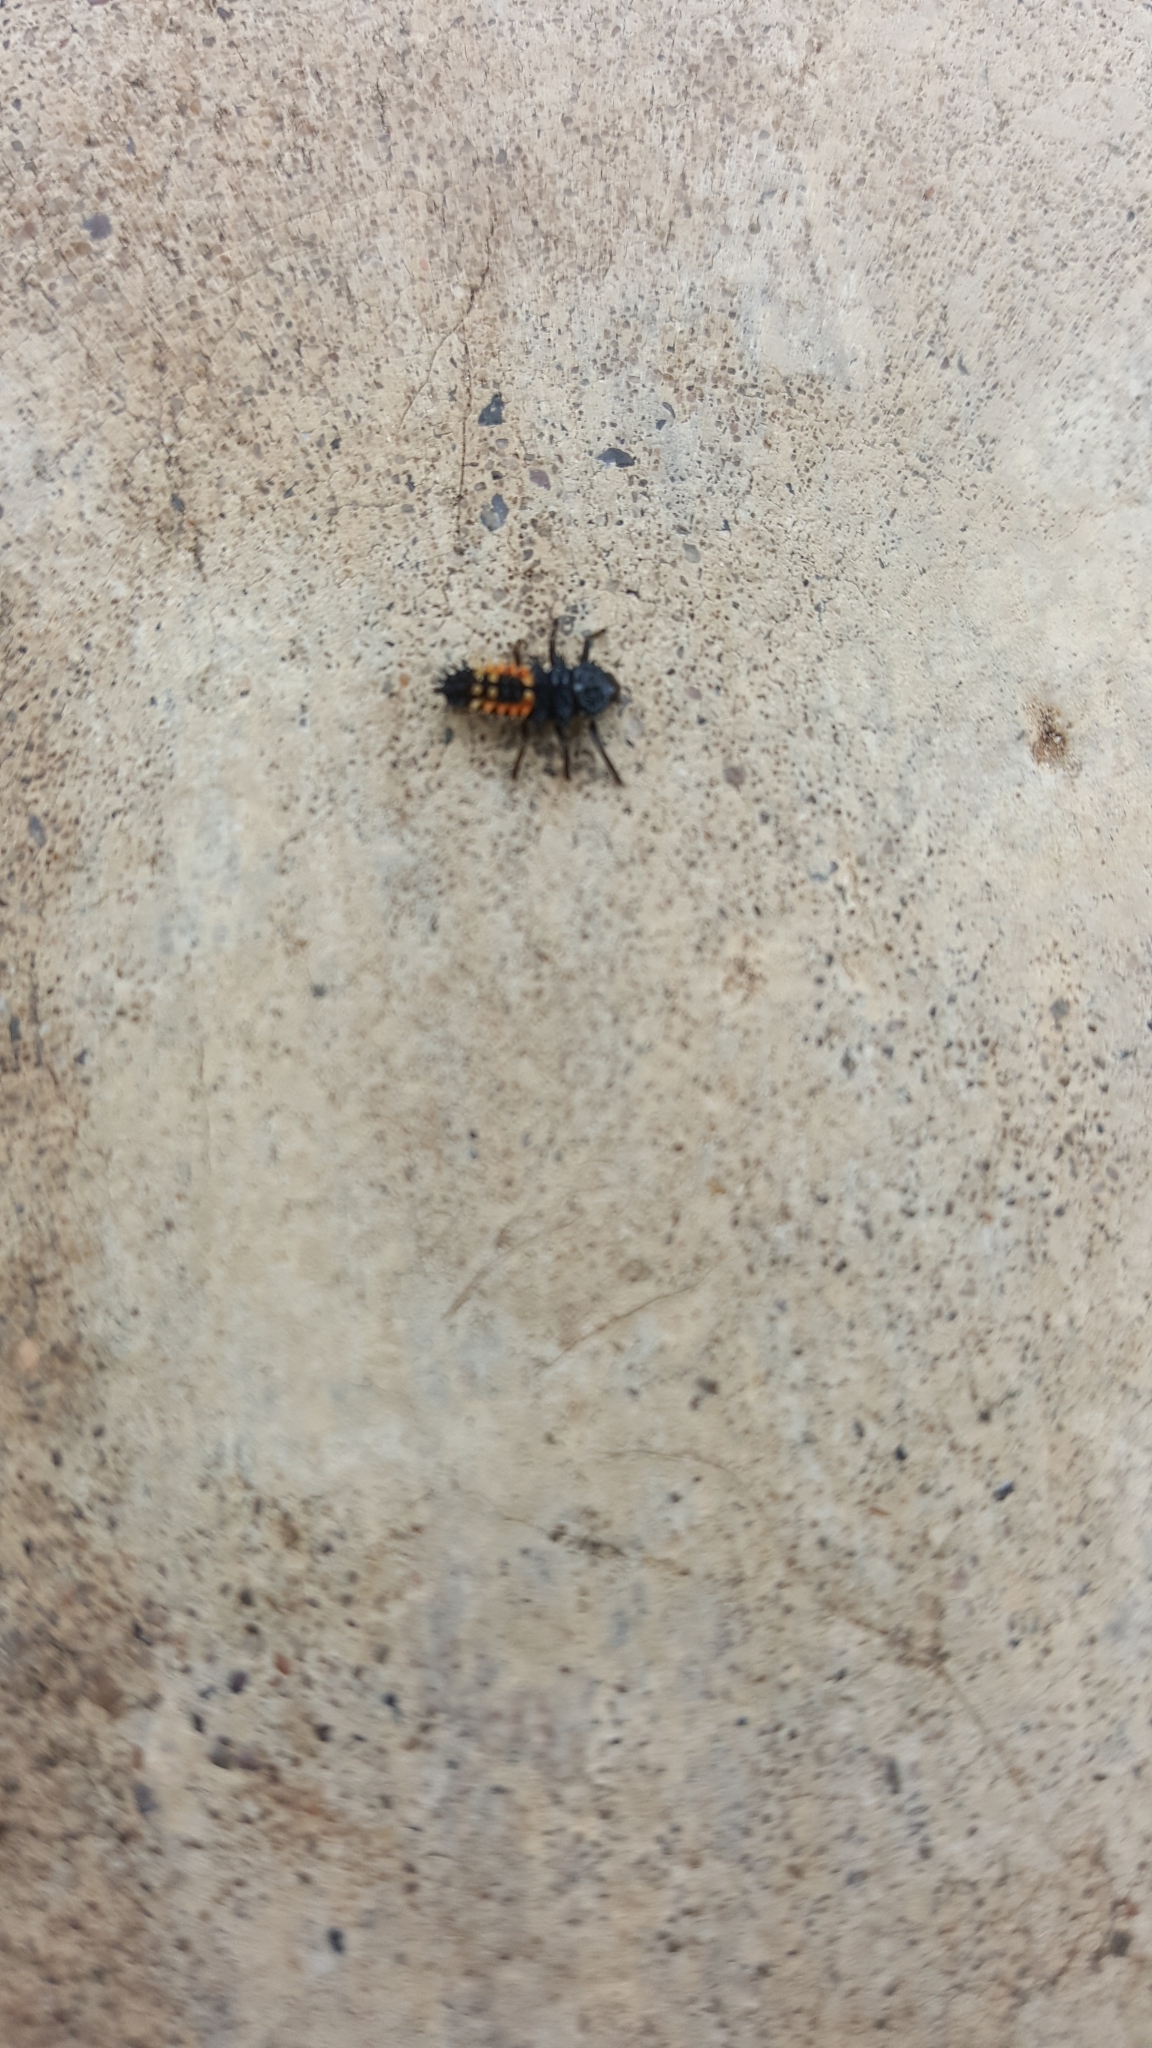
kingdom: Animalia
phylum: Arthropoda
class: Insecta
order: Coleoptera
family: Coccinellidae
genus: Harmonia
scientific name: Harmonia axyridis
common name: Harlequin ladybird
